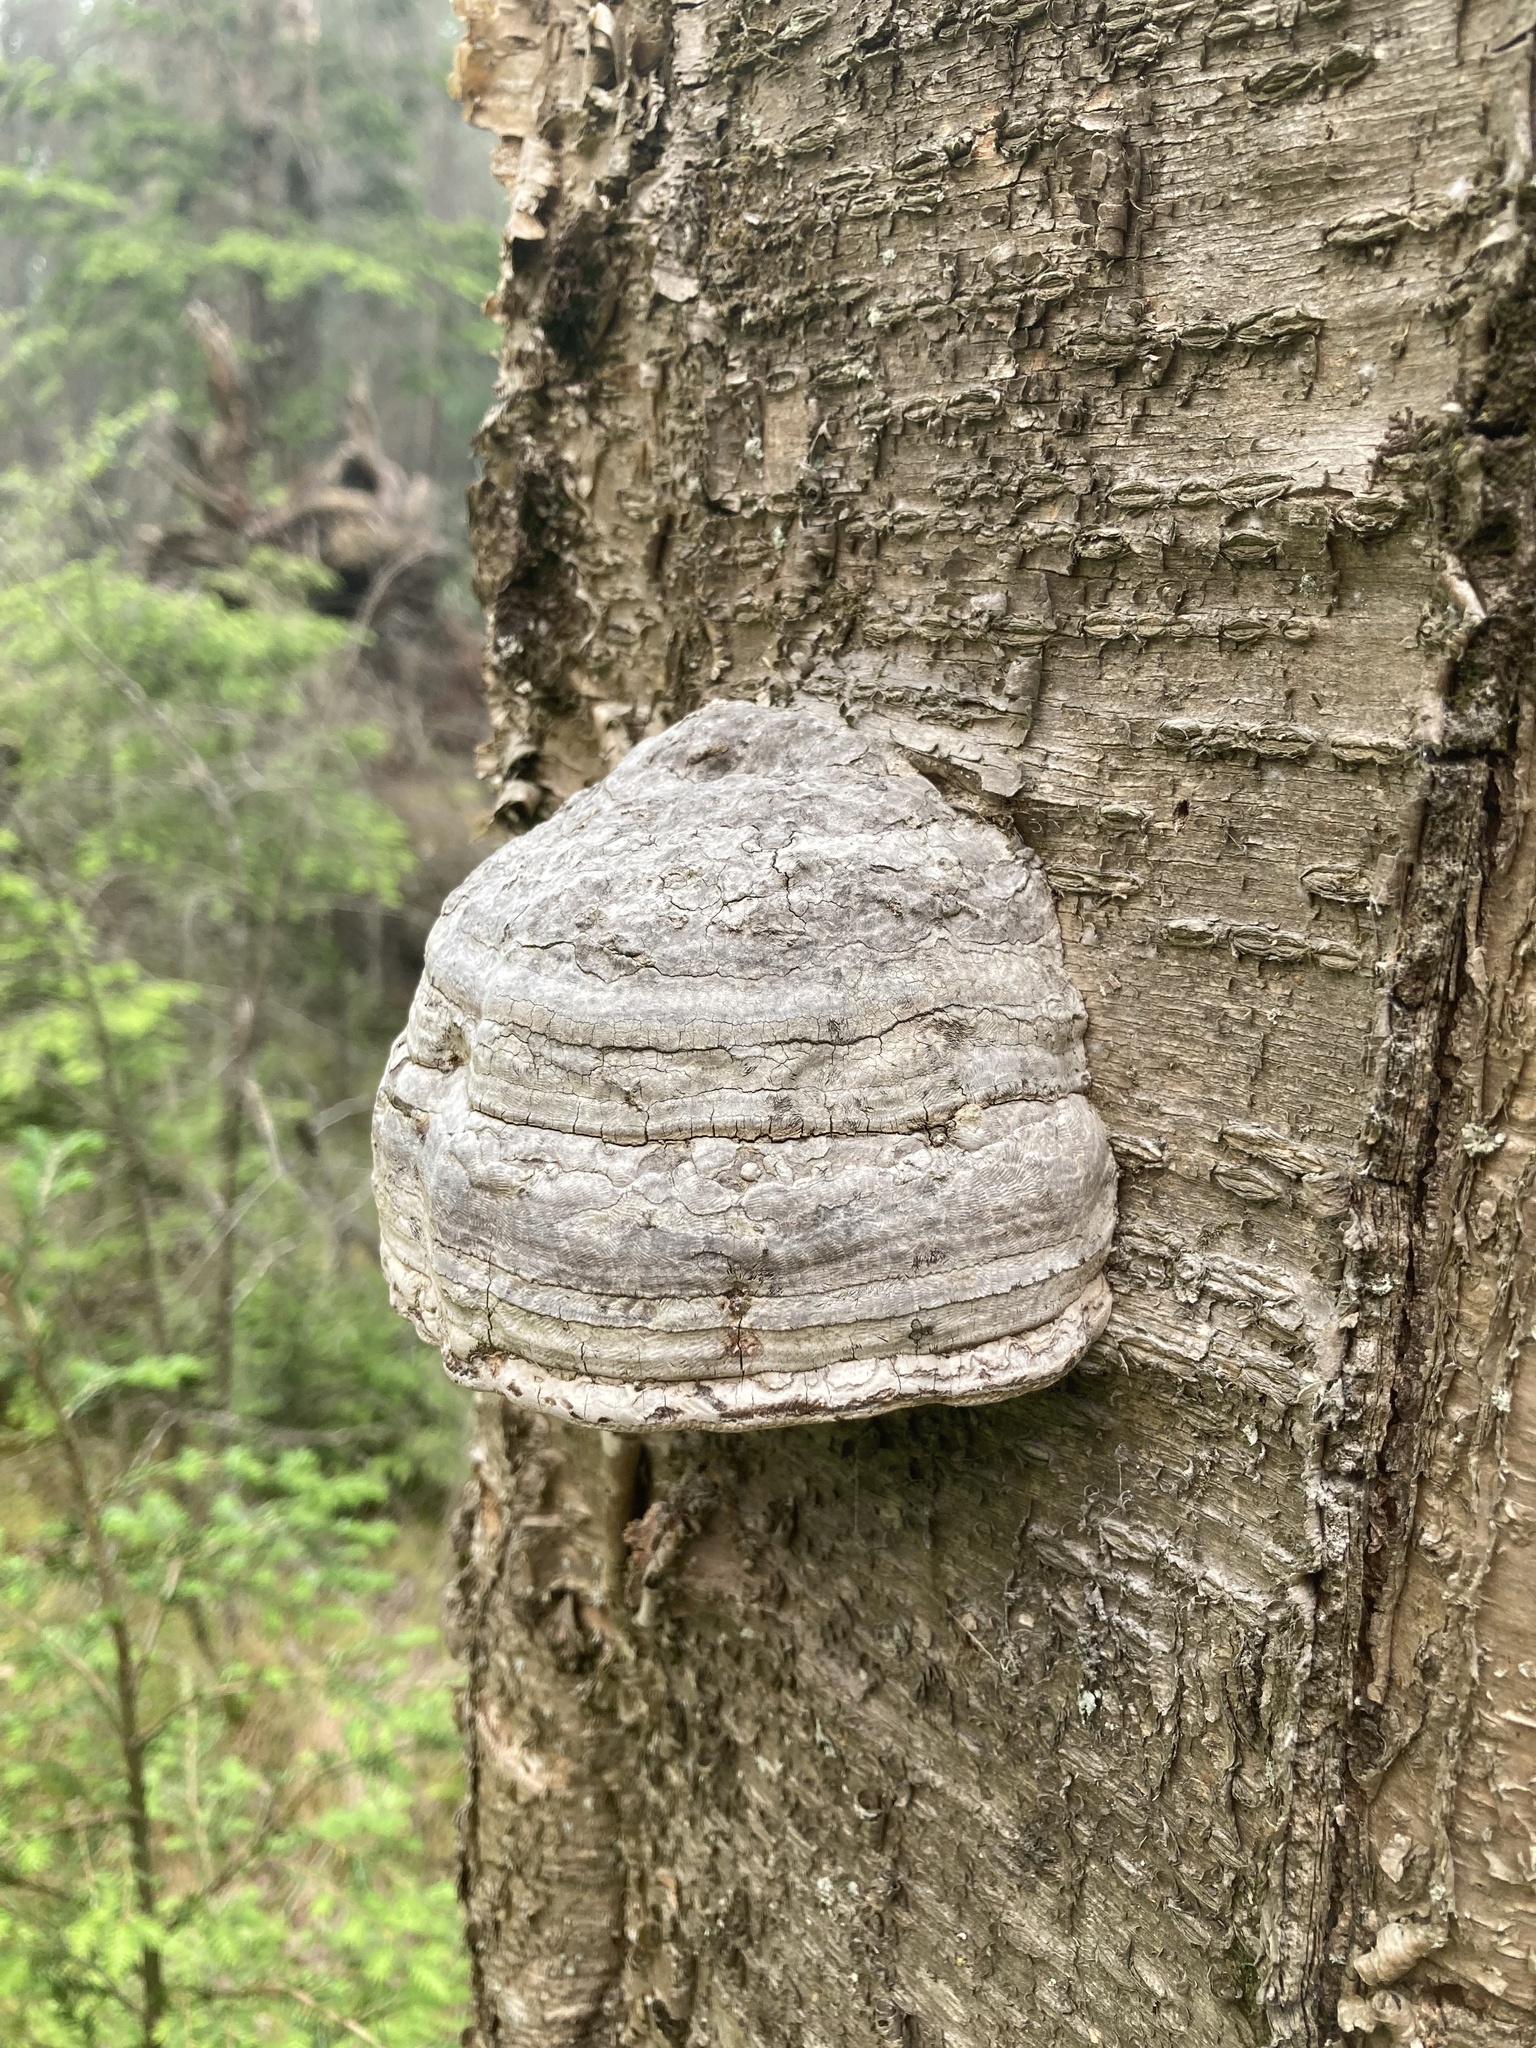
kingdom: Fungi
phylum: Basidiomycota
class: Agaricomycetes
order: Polyporales
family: Polyporaceae
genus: Fomes
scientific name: Fomes fomentarius
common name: Hoof fungus
